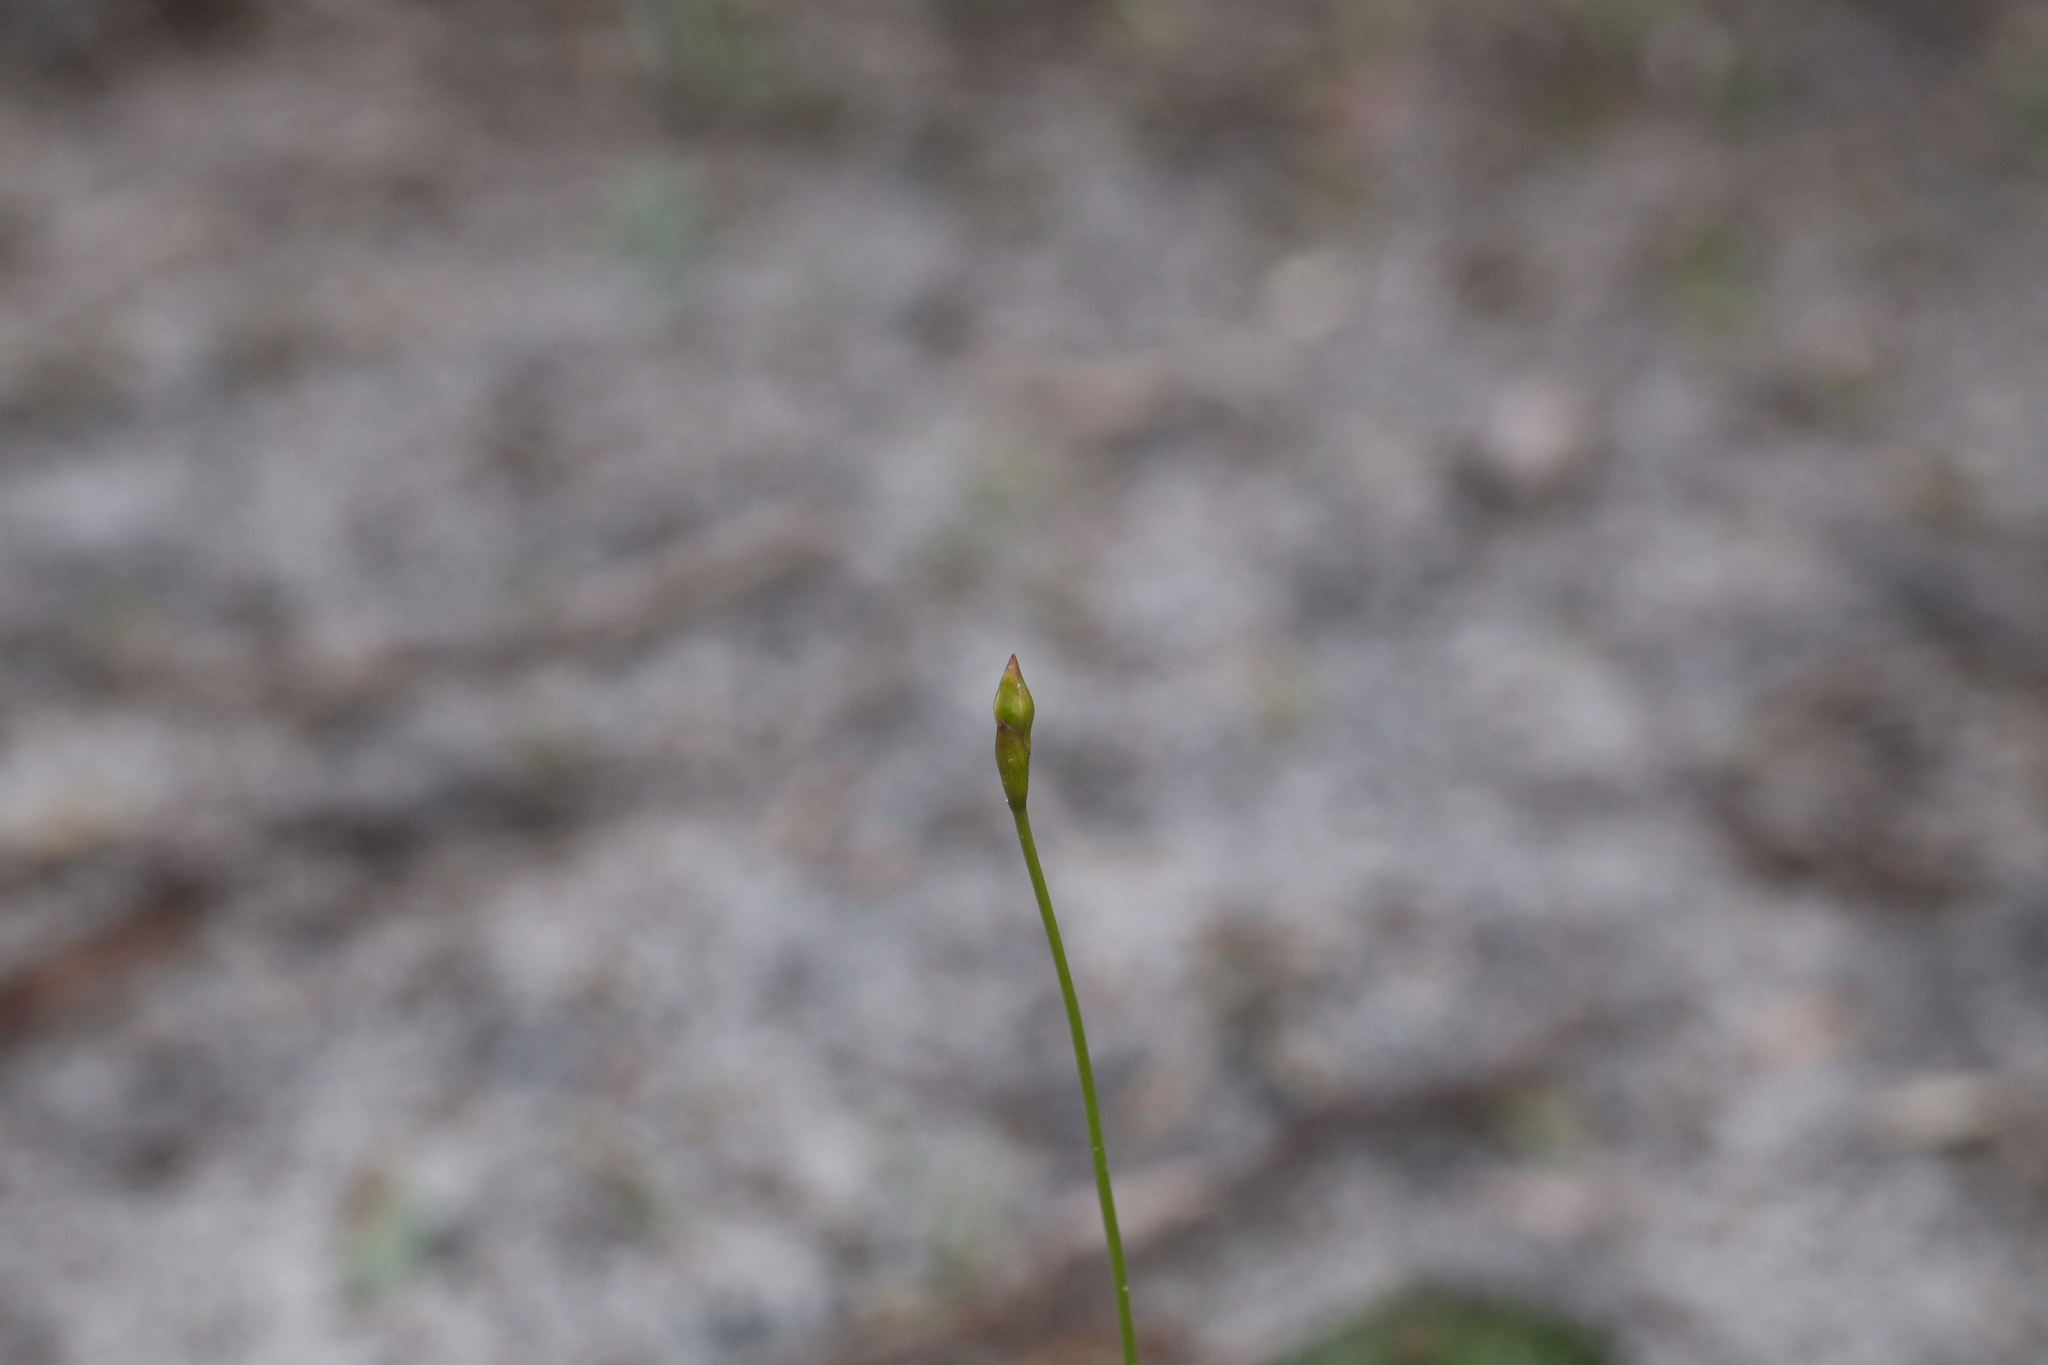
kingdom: Plantae
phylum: Tracheophyta
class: Liliopsida
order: Asparagales
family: Orchidaceae
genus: Drakaea
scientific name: Drakaea glyptodon
